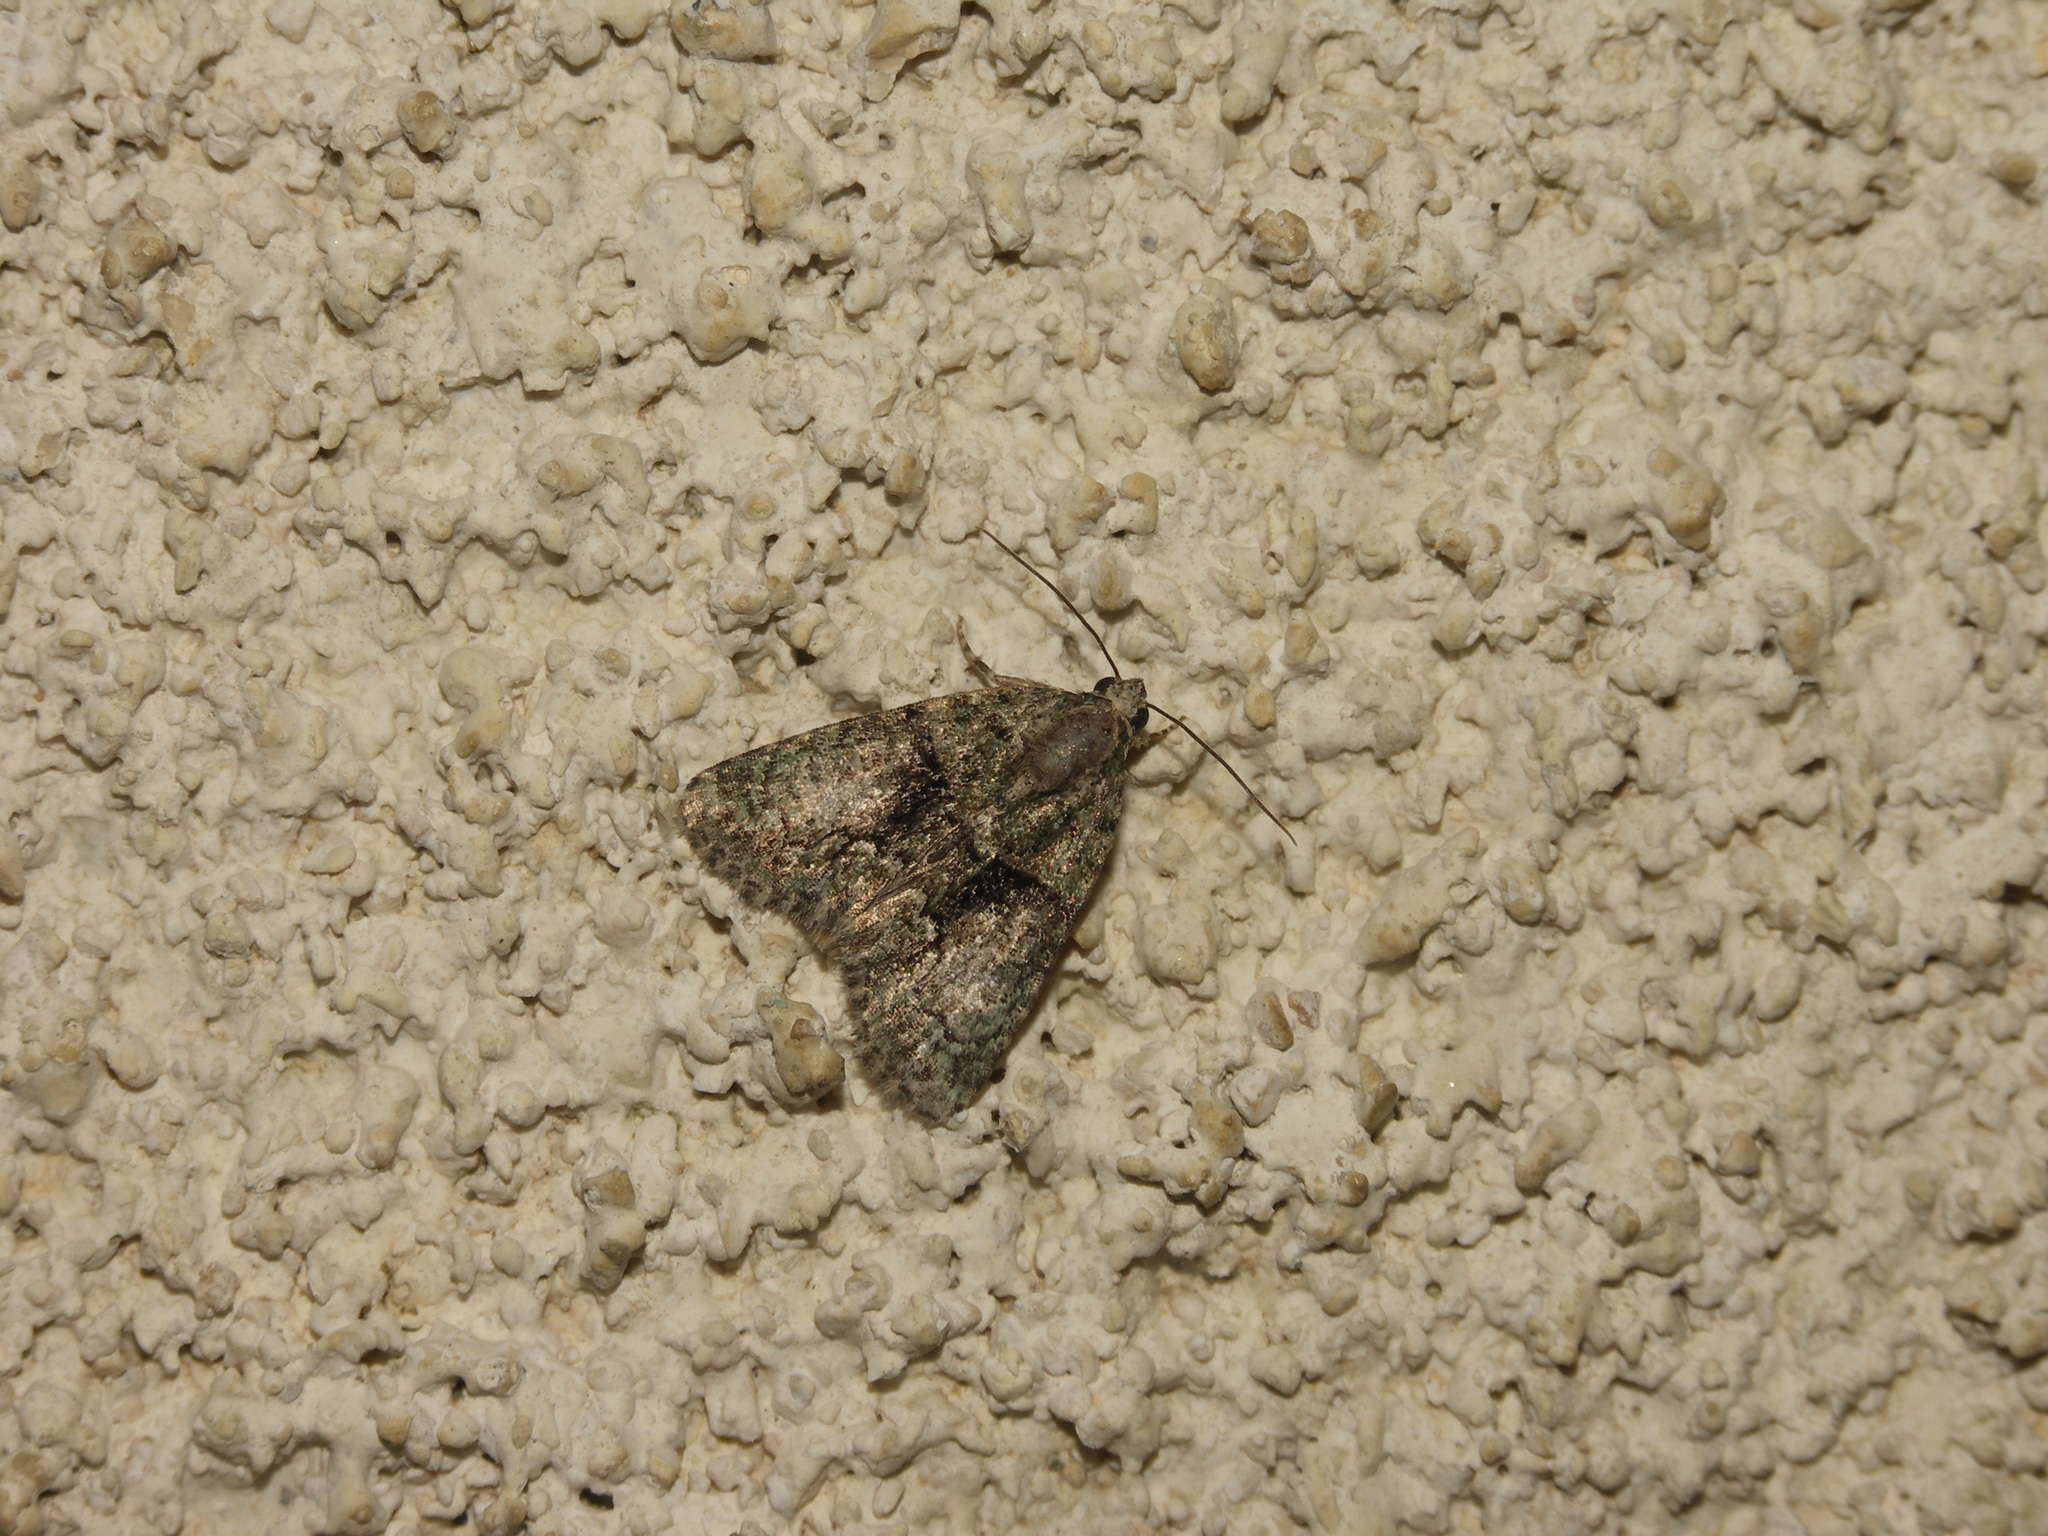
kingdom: Animalia
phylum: Arthropoda
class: Insecta
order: Lepidoptera
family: Noctuidae
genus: Cryphia
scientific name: Cryphia algae
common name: Tree-lichen beauty
